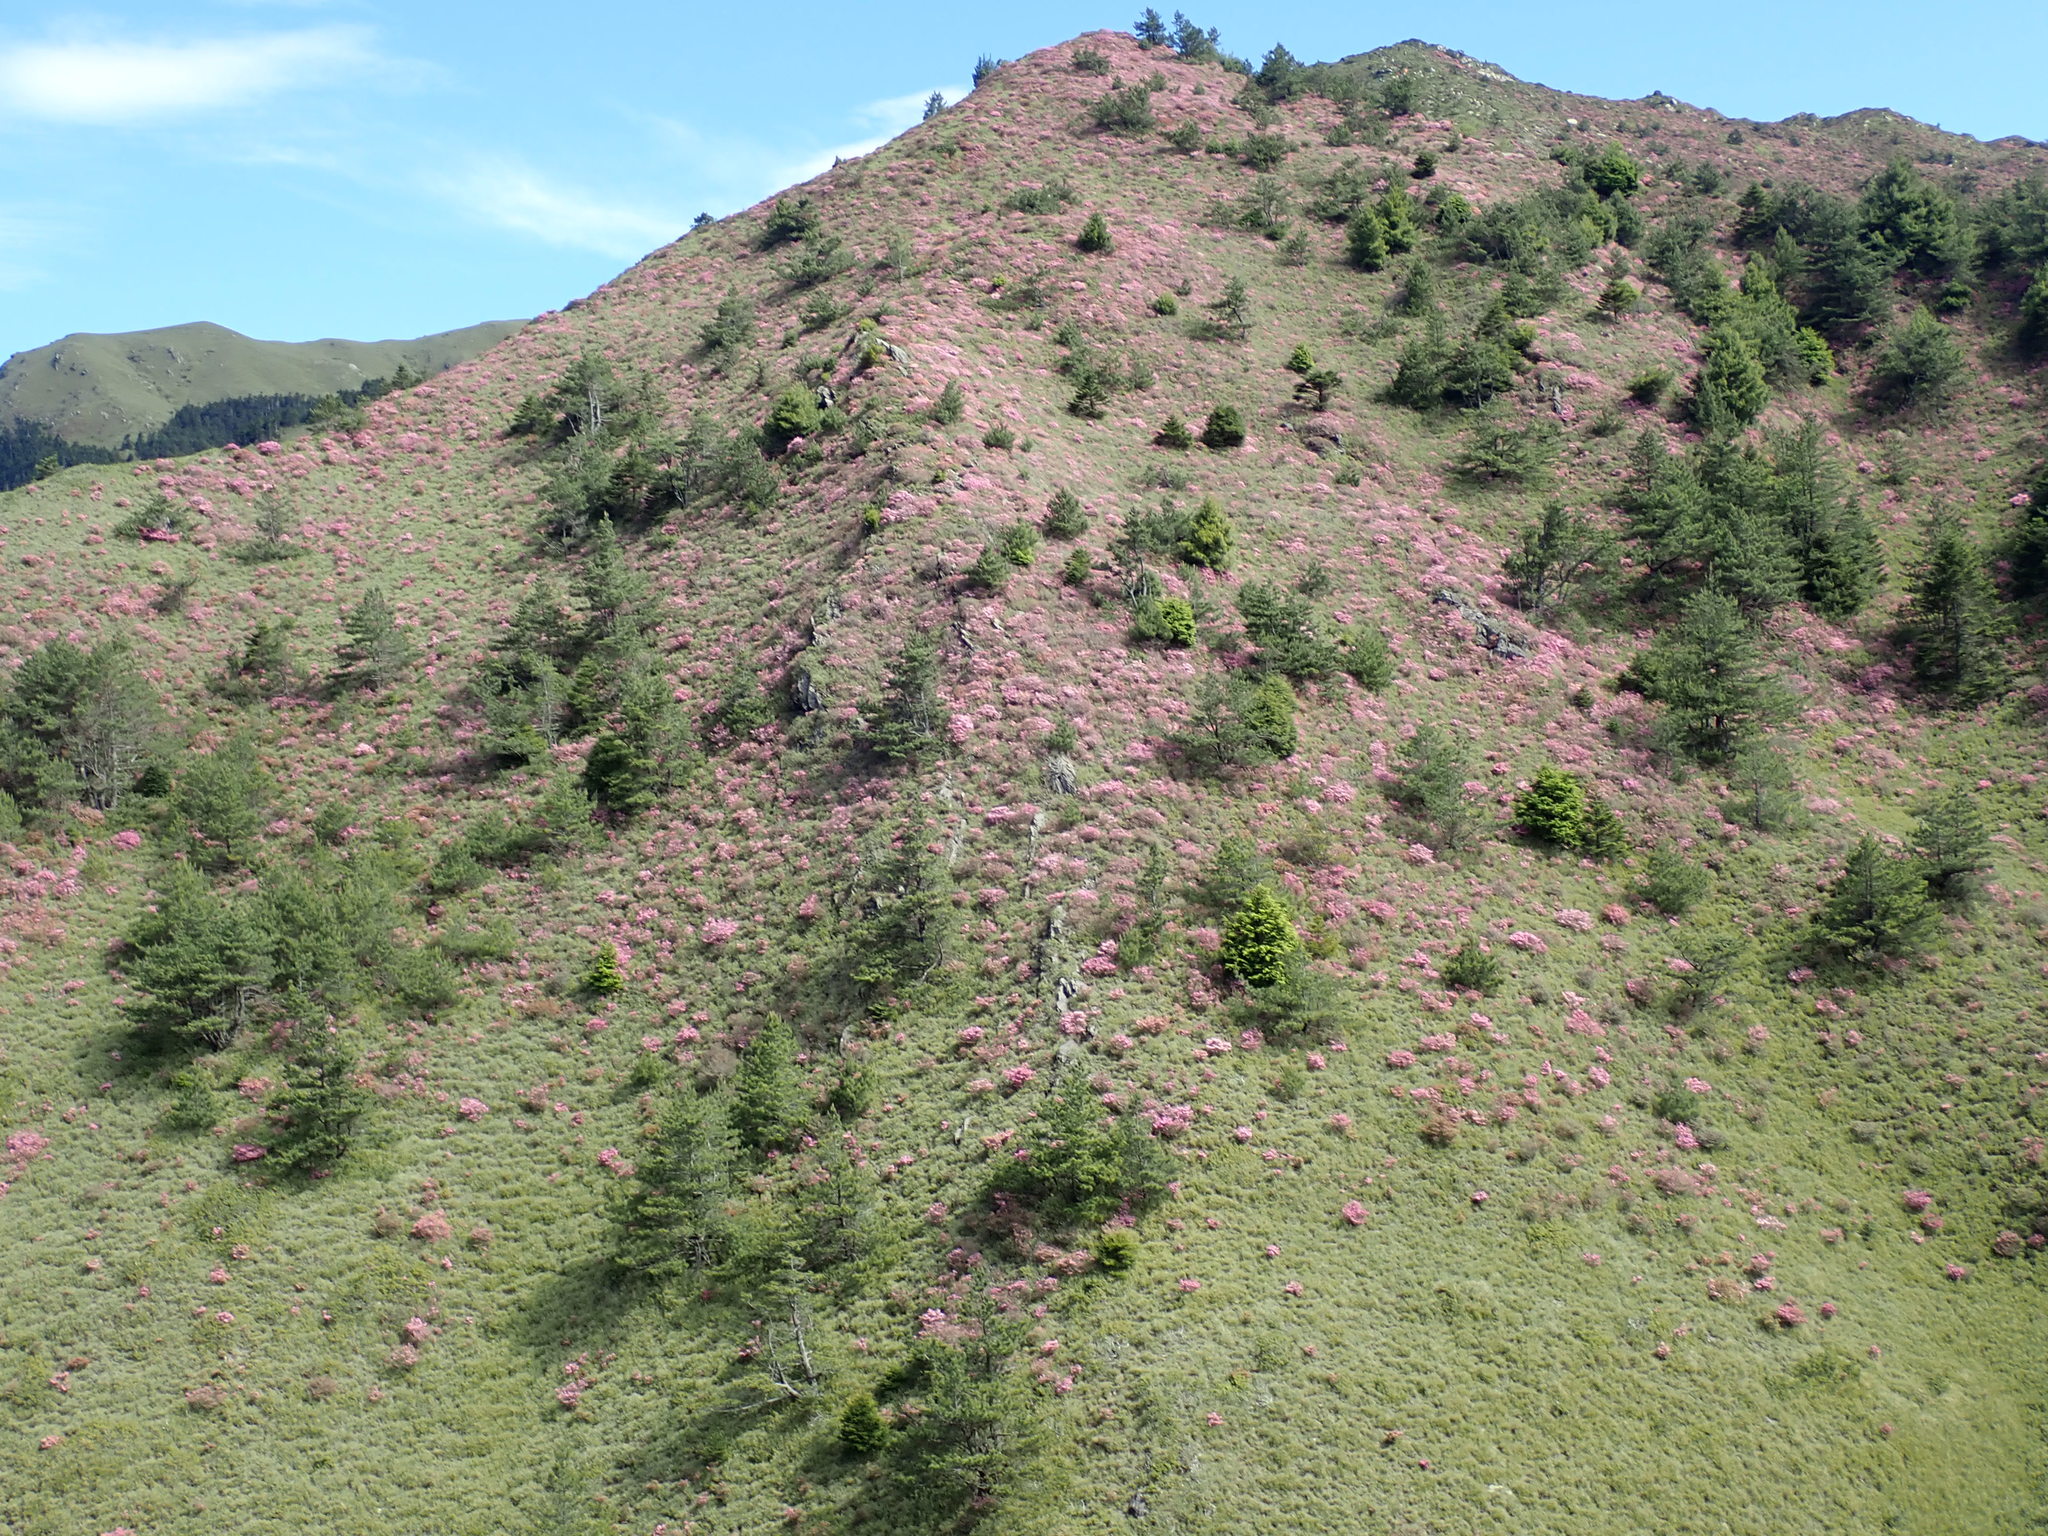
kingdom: Plantae
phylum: Tracheophyta
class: Magnoliopsida
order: Ericales
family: Ericaceae
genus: Rhododendron
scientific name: Rhododendron rubropilosum
